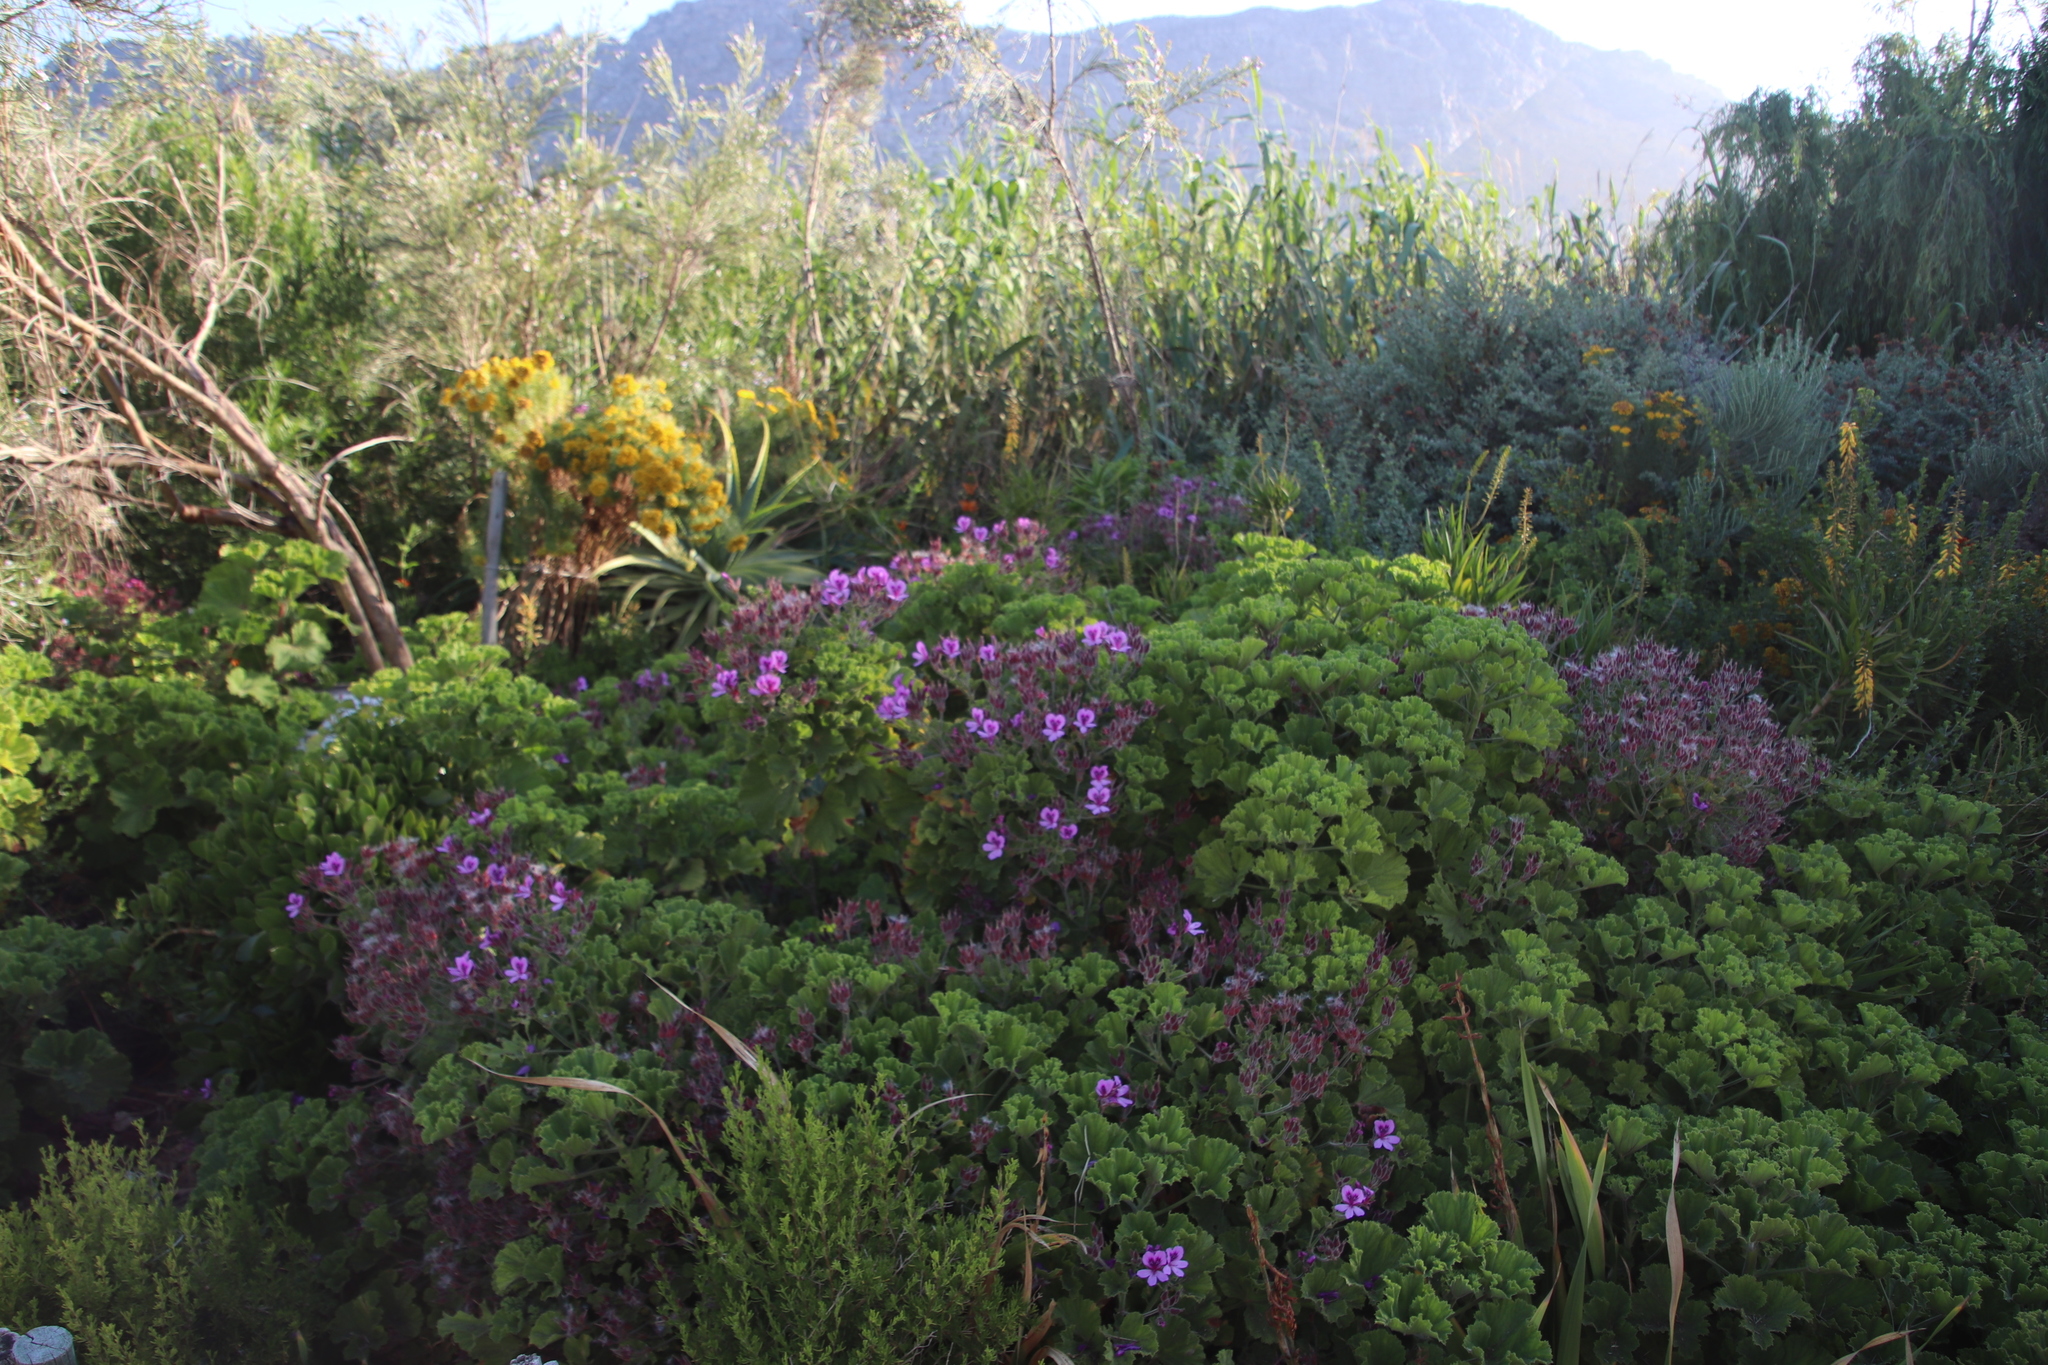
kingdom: Plantae
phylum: Tracheophyta
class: Magnoliopsida
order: Geraniales
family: Geraniaceae
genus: Pelargonium
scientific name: Pelargonium cucullatum
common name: Tree pelargonium
